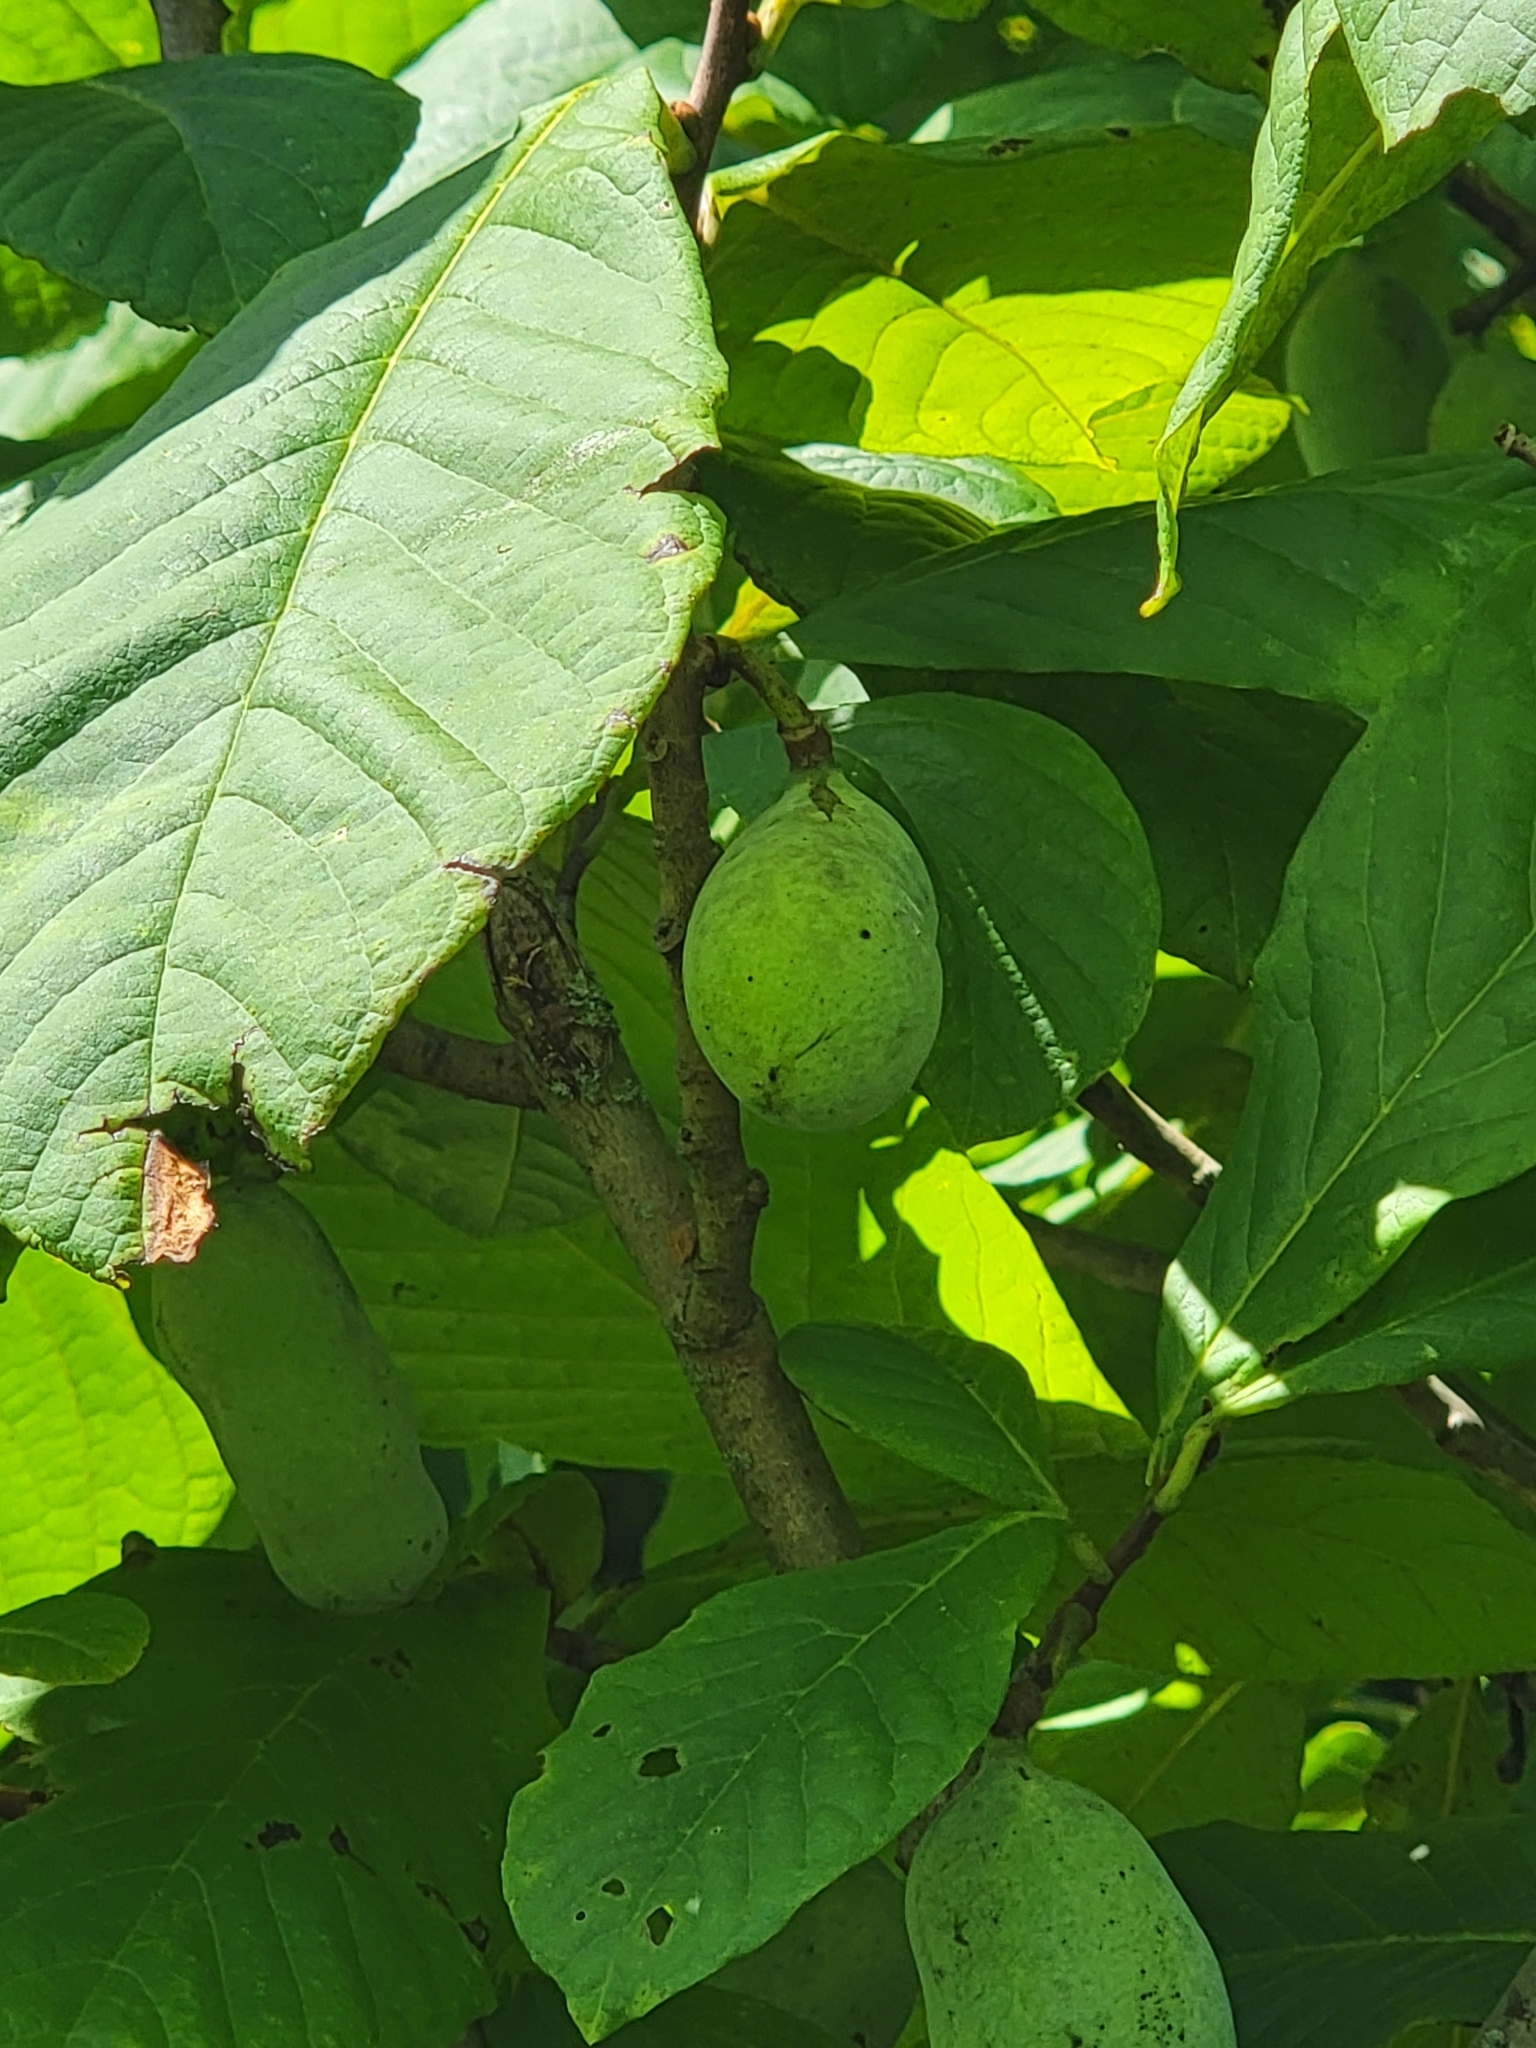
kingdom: Plantae
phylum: Tracheophyta
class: Magnoliopsida
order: Magnoliales
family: Annonaceae
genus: Asimina
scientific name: Asimina triloba
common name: Dog-banana
